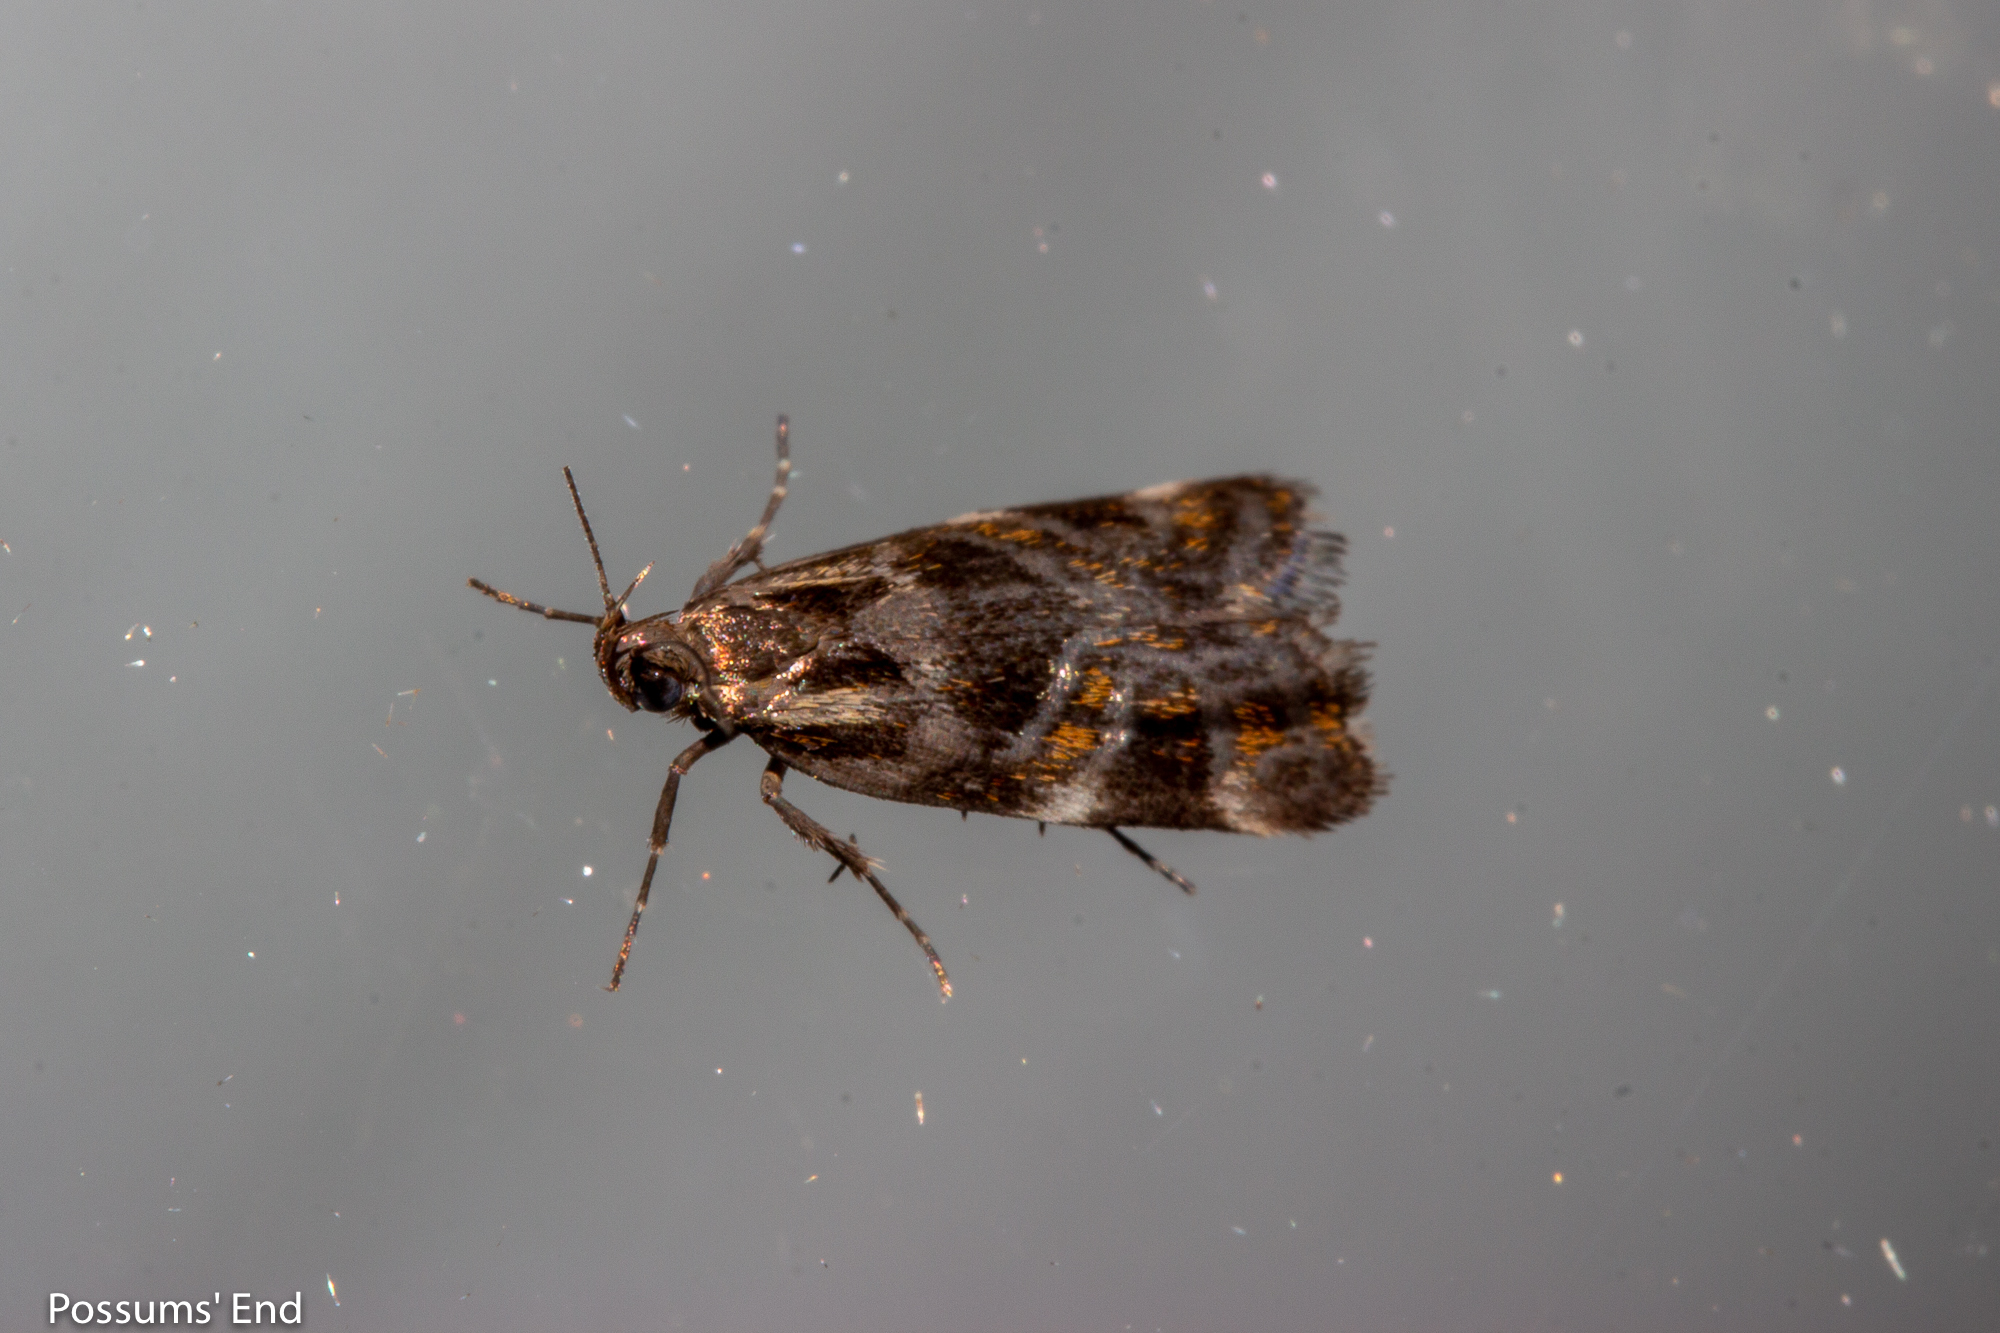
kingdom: Animalia
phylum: Arthropoda
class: Insecta
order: Lepidoptera
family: Oecophoridae
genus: Hierodoris
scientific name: Hierodoris s-fractum
